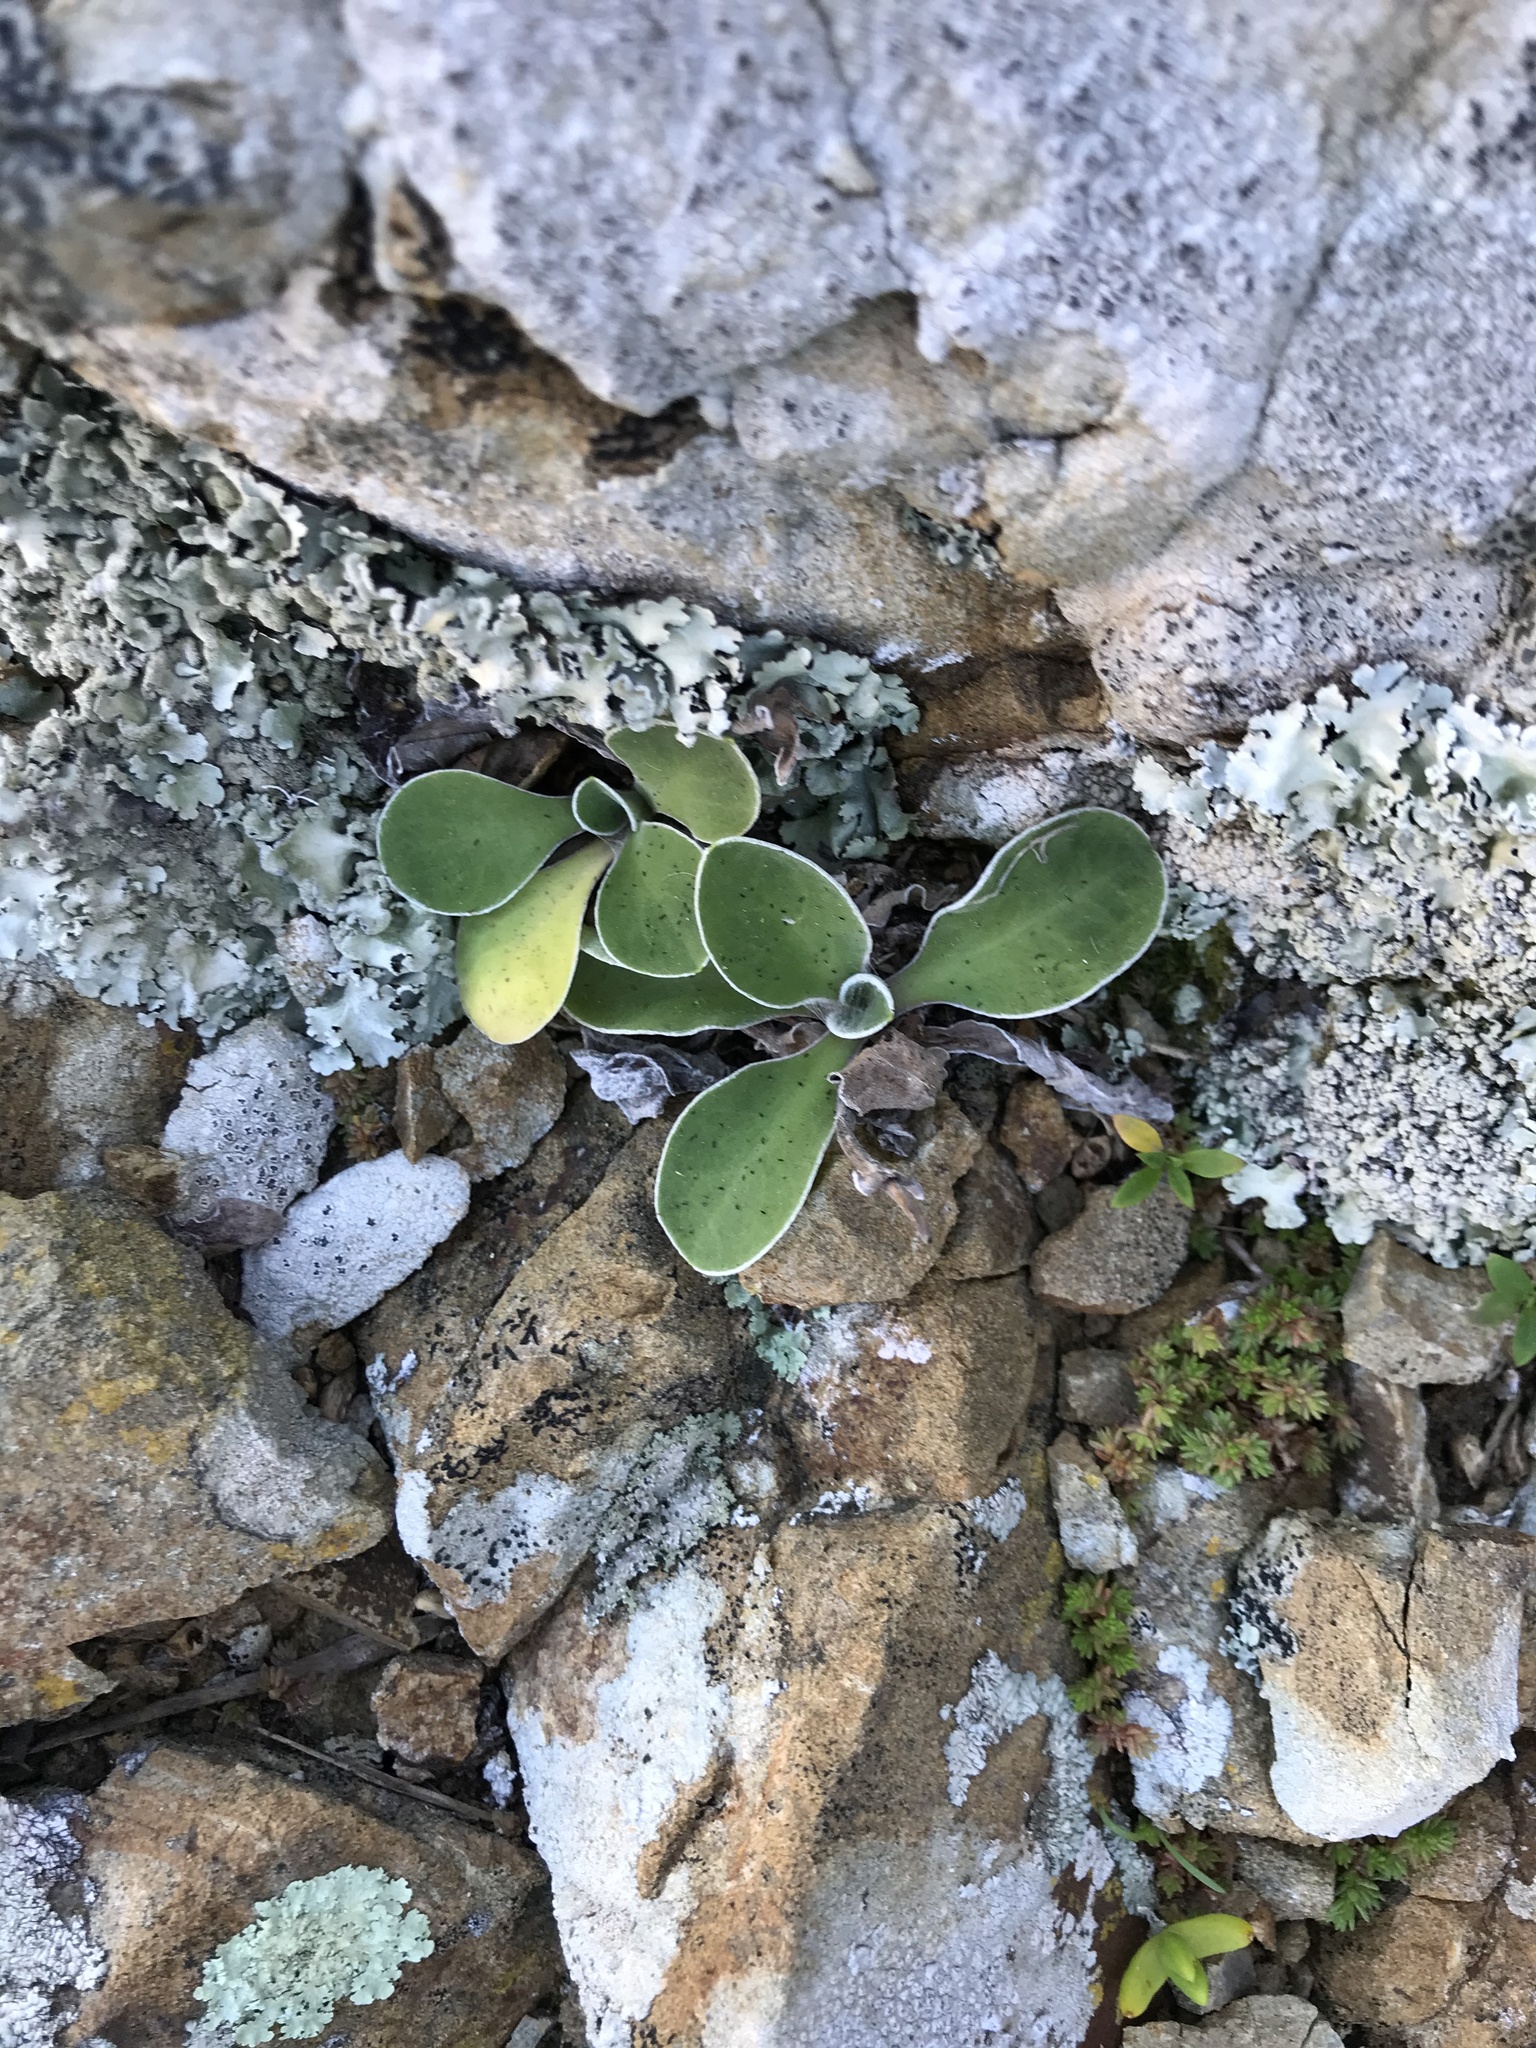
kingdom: Plantae
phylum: Tracheophyta
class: Magnoliopsida
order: Asterales
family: Asteraceae
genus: Craspedia
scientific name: Craspedia uniflora
